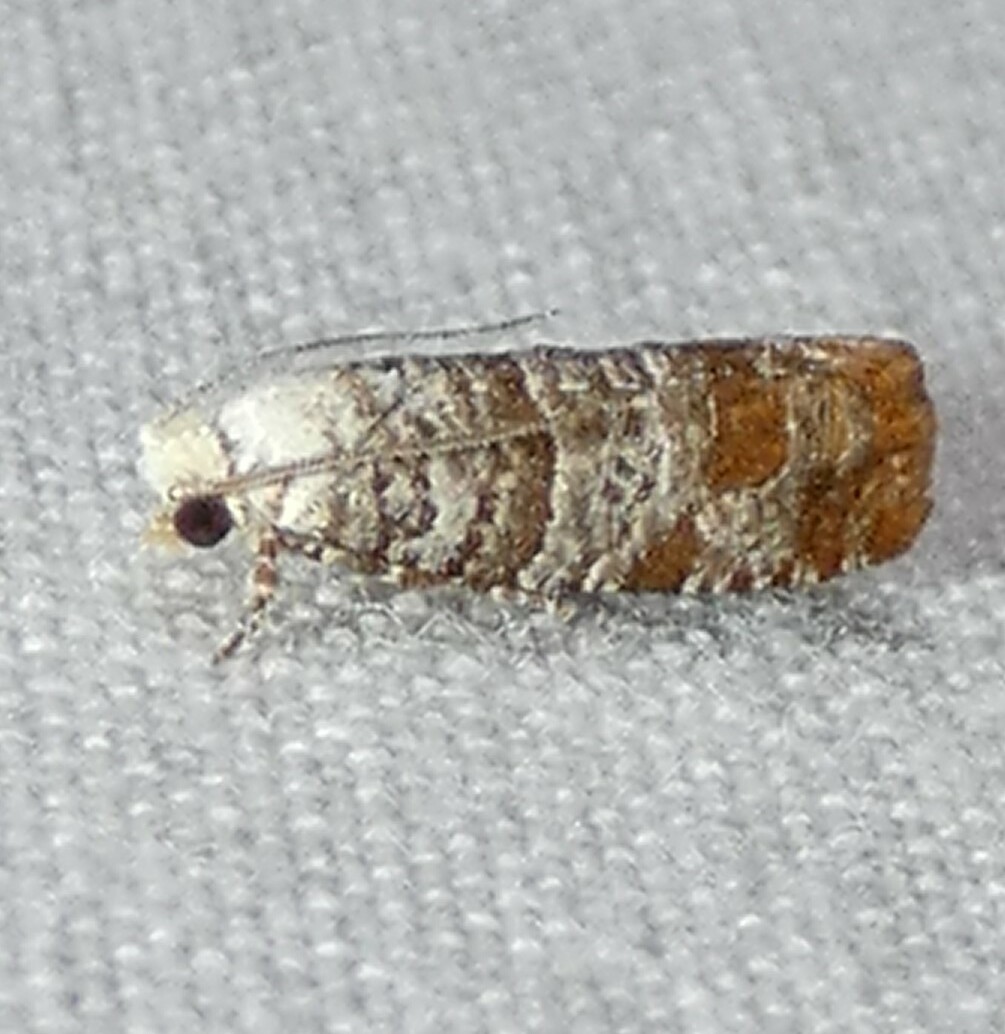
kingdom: Animalia
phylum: Arthropoda
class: Insecta
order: Lepidoptera
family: Tortricidae
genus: Retinia
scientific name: Retinia comstockiana
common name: Pitch twig moth
